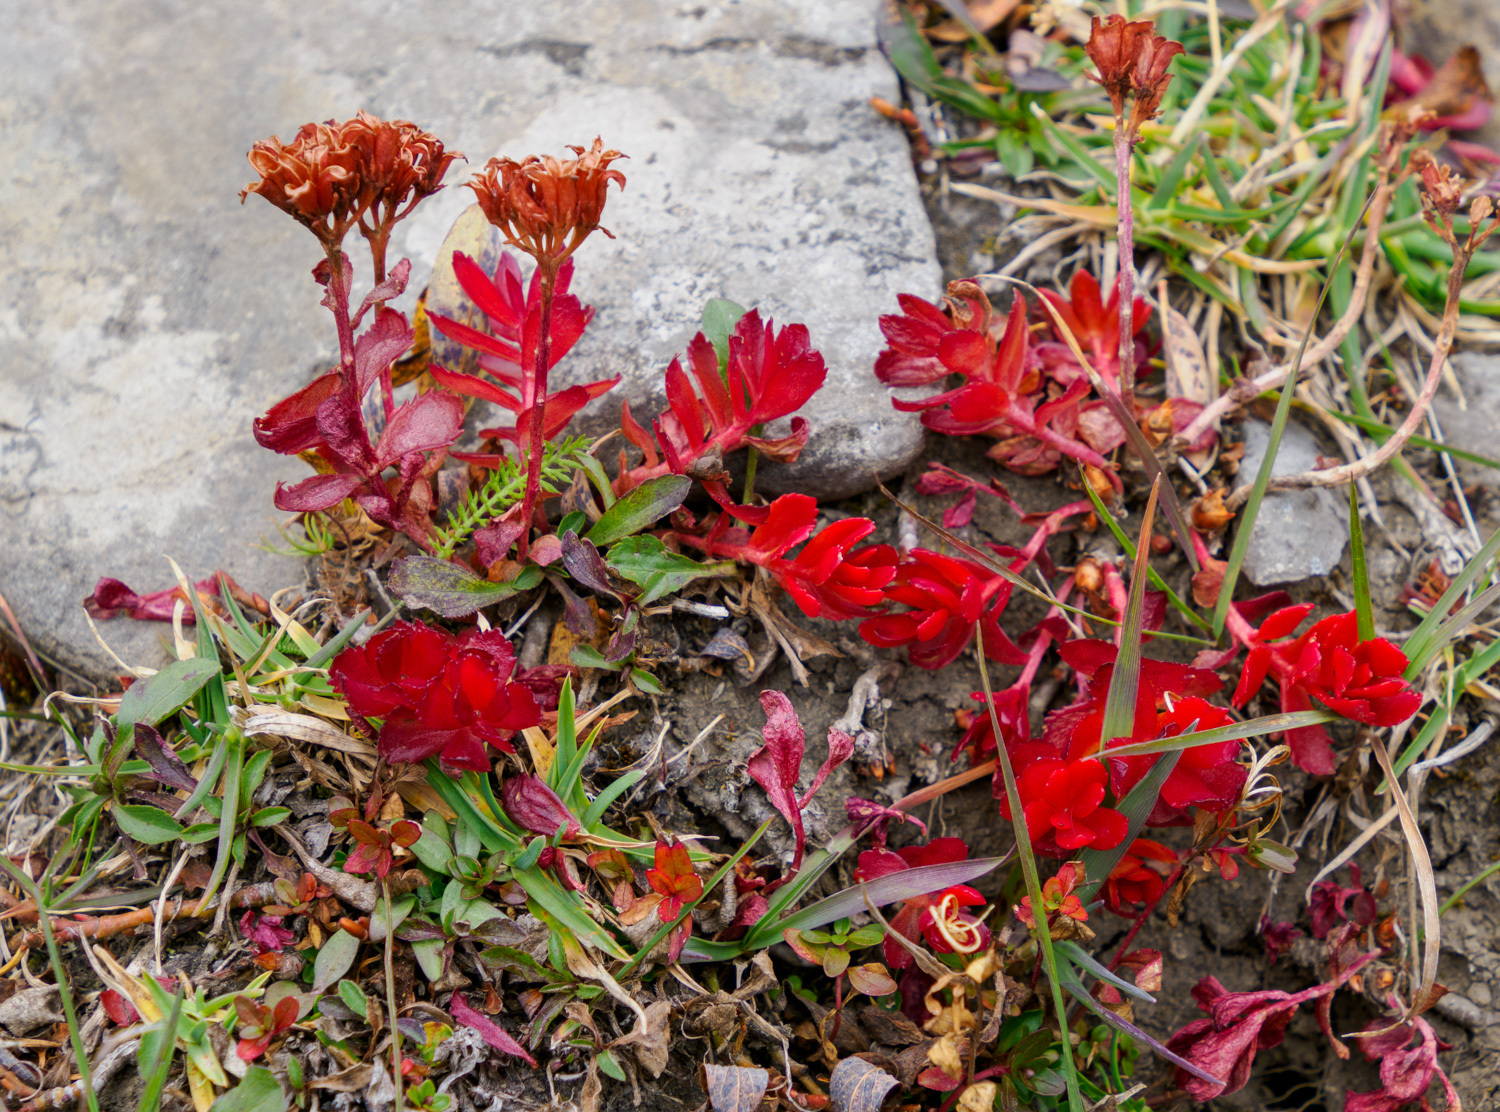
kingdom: Plantae
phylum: Tracheophyta
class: Magnoliopsida
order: Saxifragales
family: Crassulaceae
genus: Rhodiola
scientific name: Rhodiola integrifolia
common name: Western roseroot
